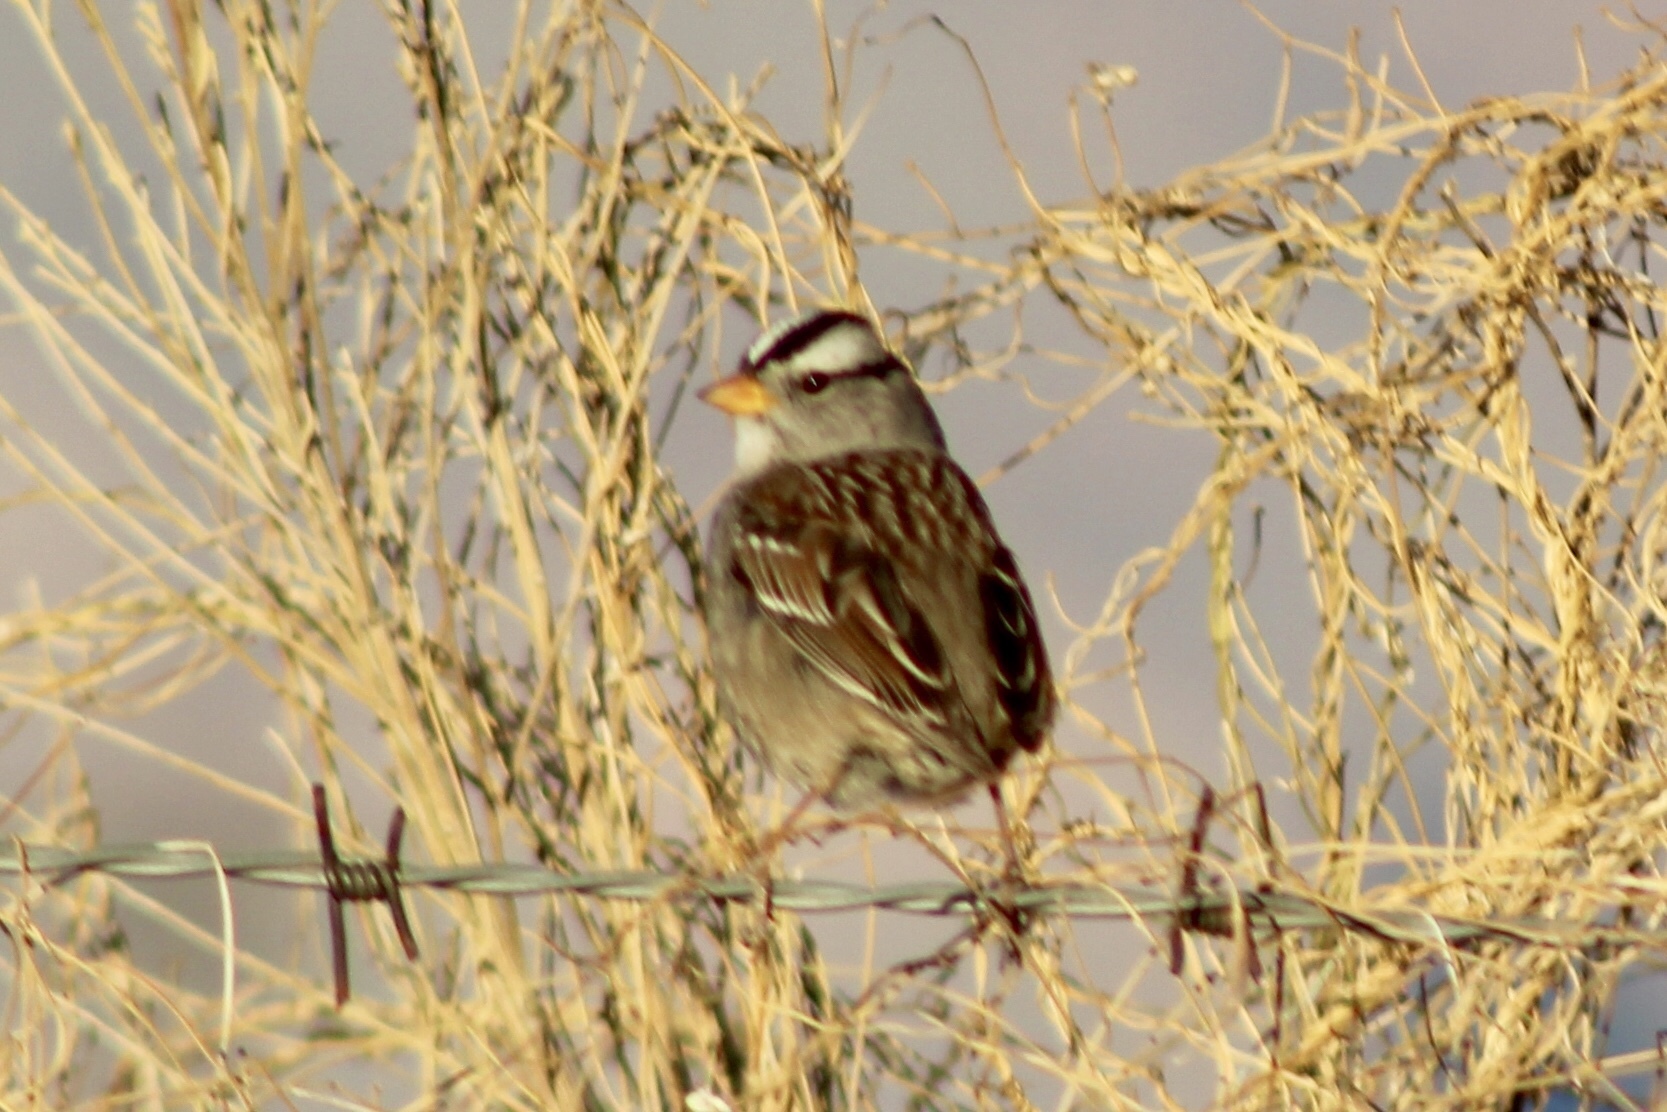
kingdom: Animalia
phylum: Chordata
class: Aves
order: Passeriformes
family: Passerellidae
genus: Zonotrichia
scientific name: Zonotrichia leucophrys
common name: White-crowned sparrow
